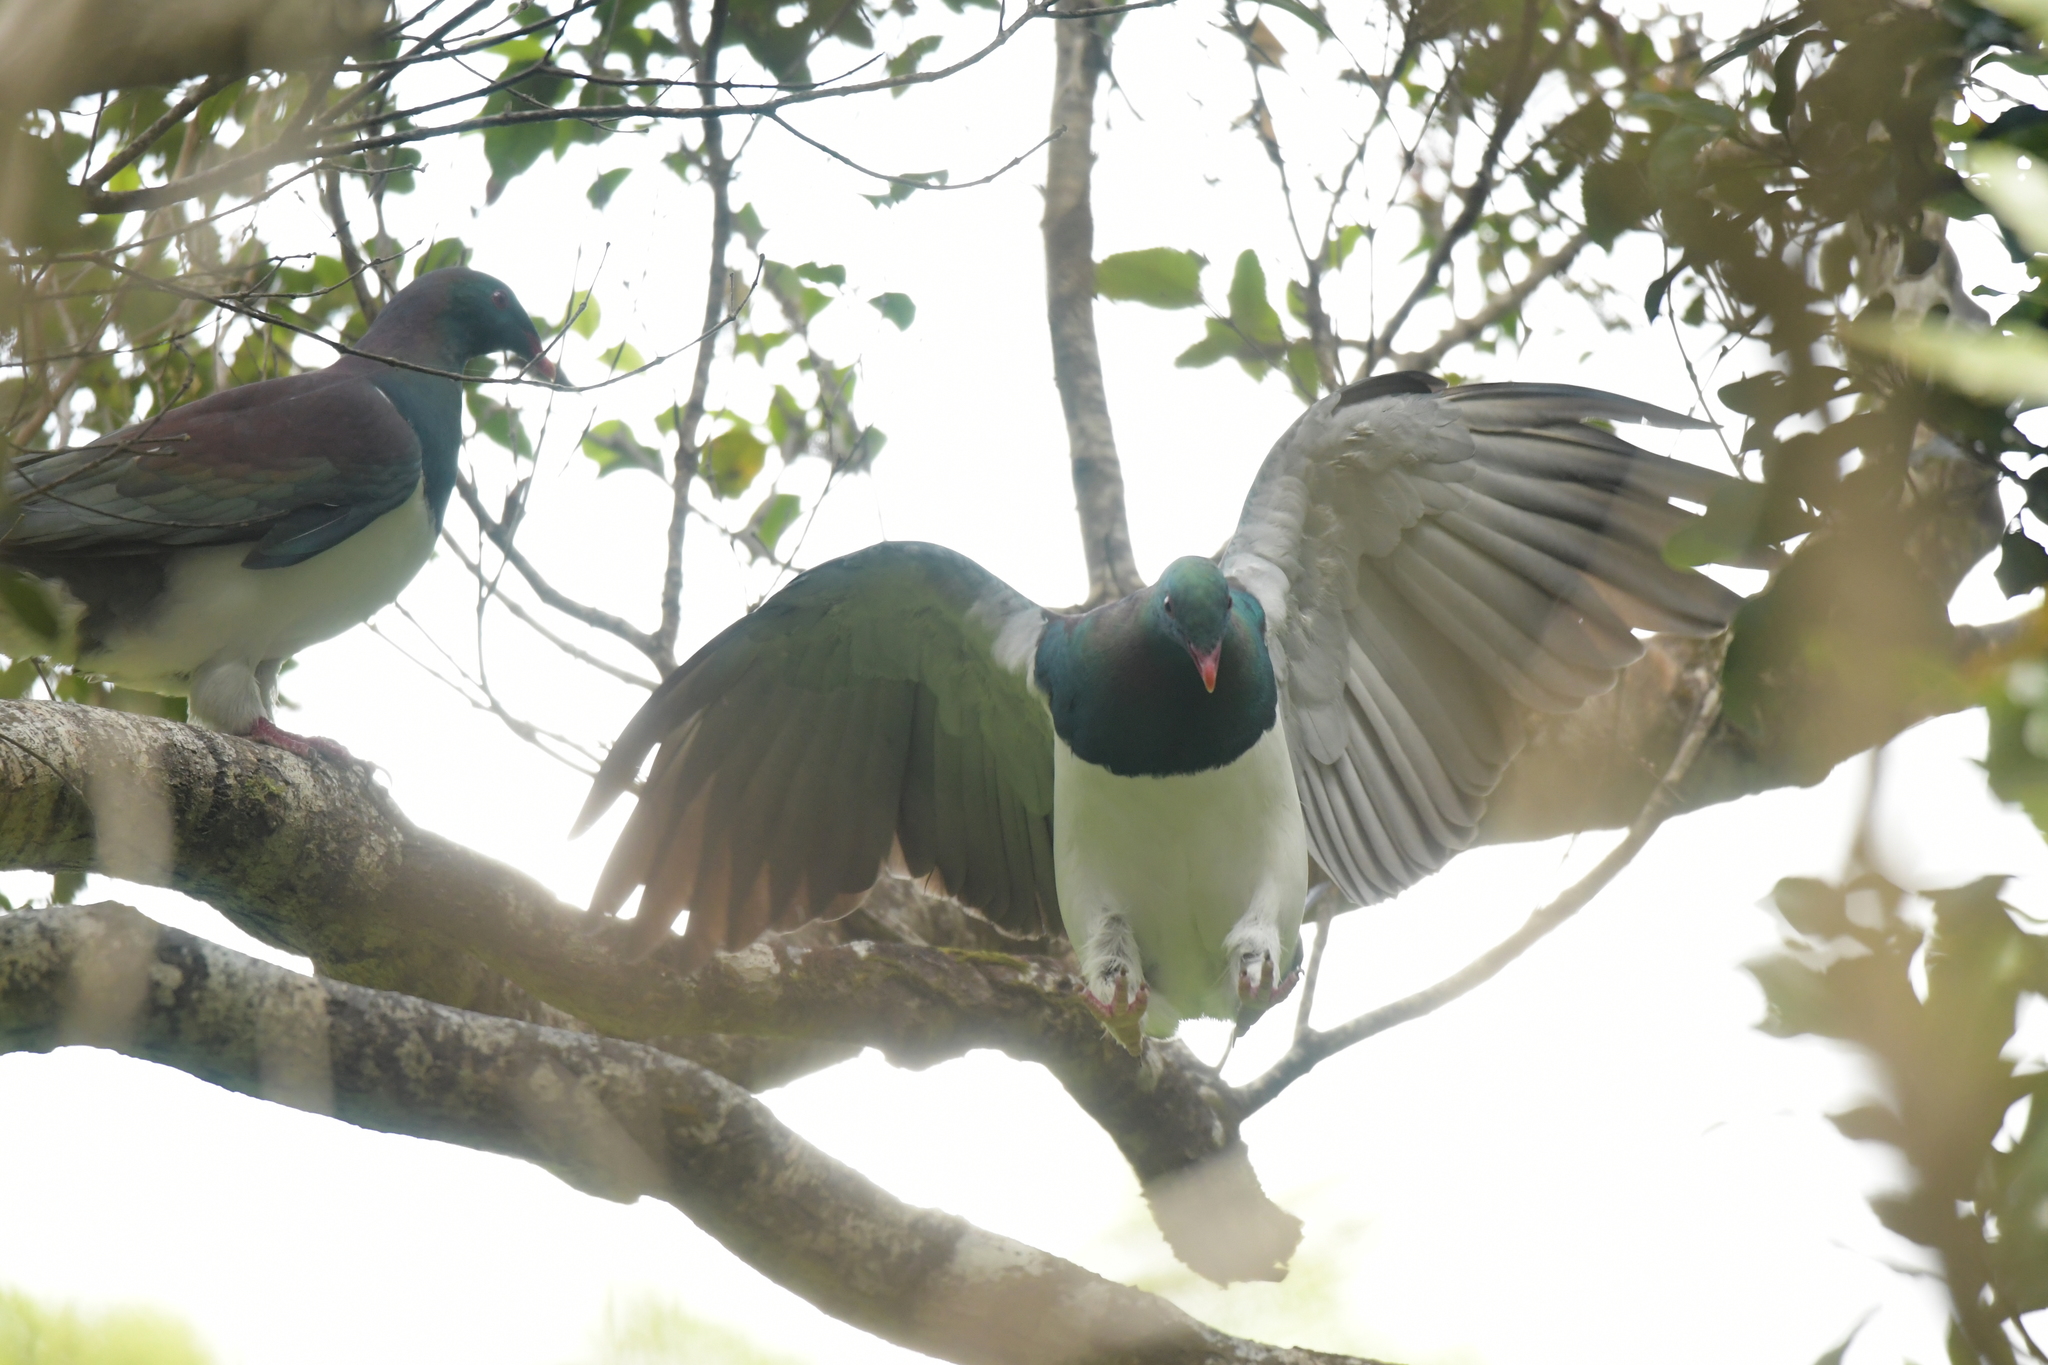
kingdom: Animalia
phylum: Chordata
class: Aves
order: Columbiformes
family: Columbidae
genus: Hemiphaga
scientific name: Hemiphaga novaeseelandiae
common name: New zealand pigeon
